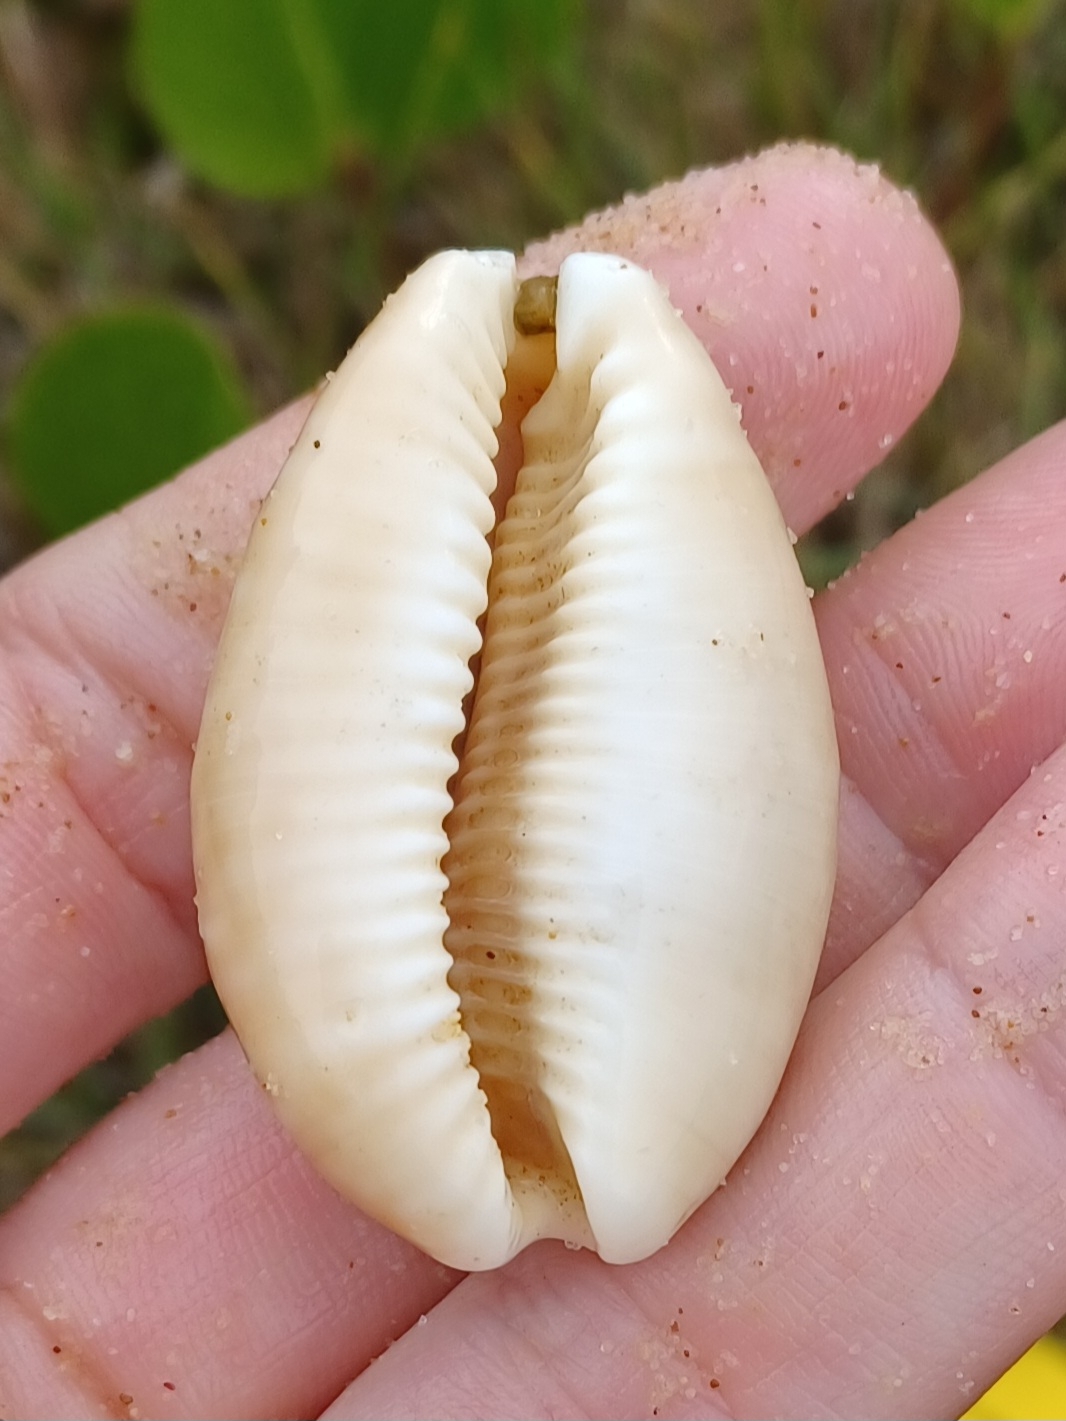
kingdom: Animalia
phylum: Mollusca
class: Gastropoda
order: Littorinimorpha
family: Cypraeidae
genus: Lyncina
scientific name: Lyncina vitellus
